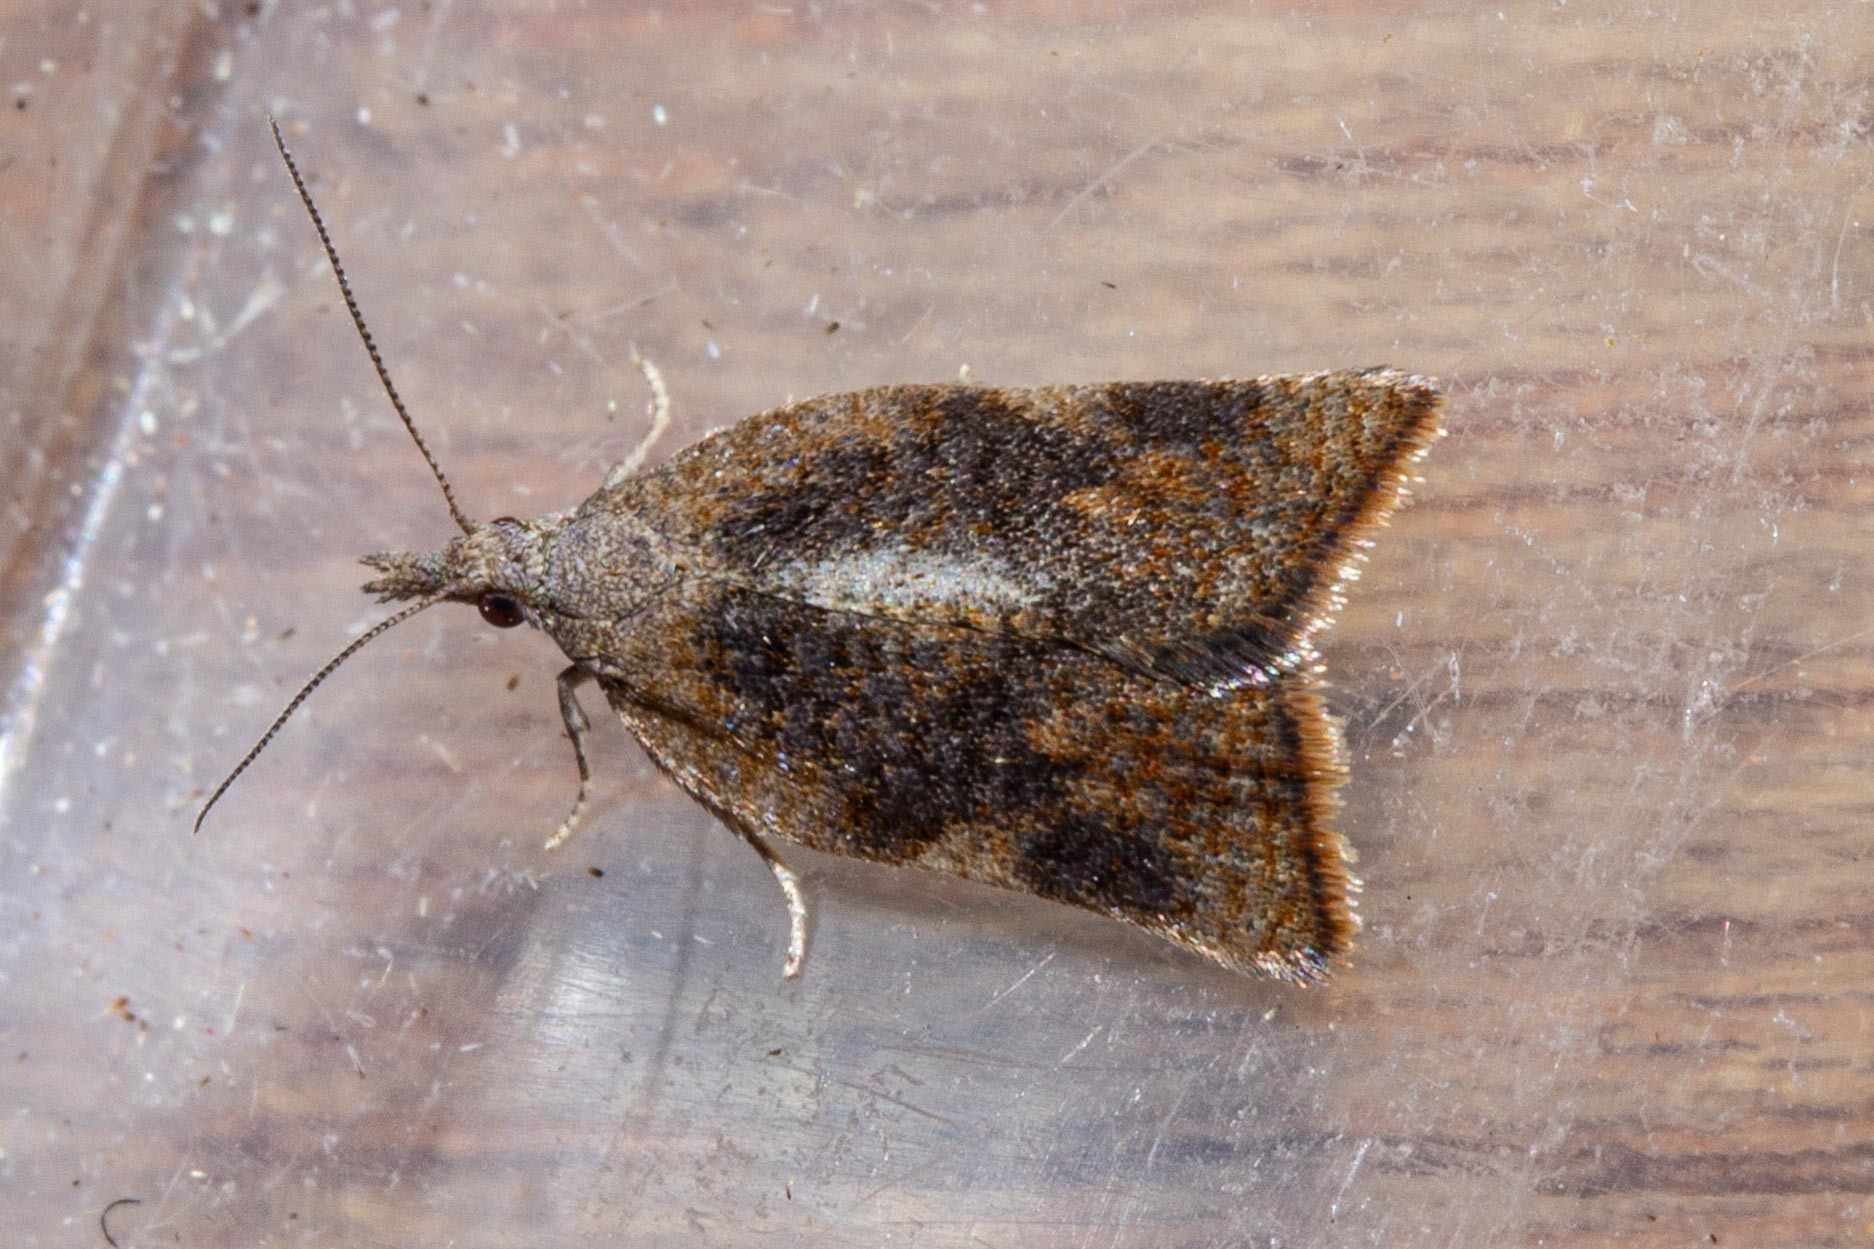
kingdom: Animalia
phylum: Arthropoda
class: Insecta
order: Lepidoptera
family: Tortricidae
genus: Catamacta
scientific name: Catamacta gavisana
